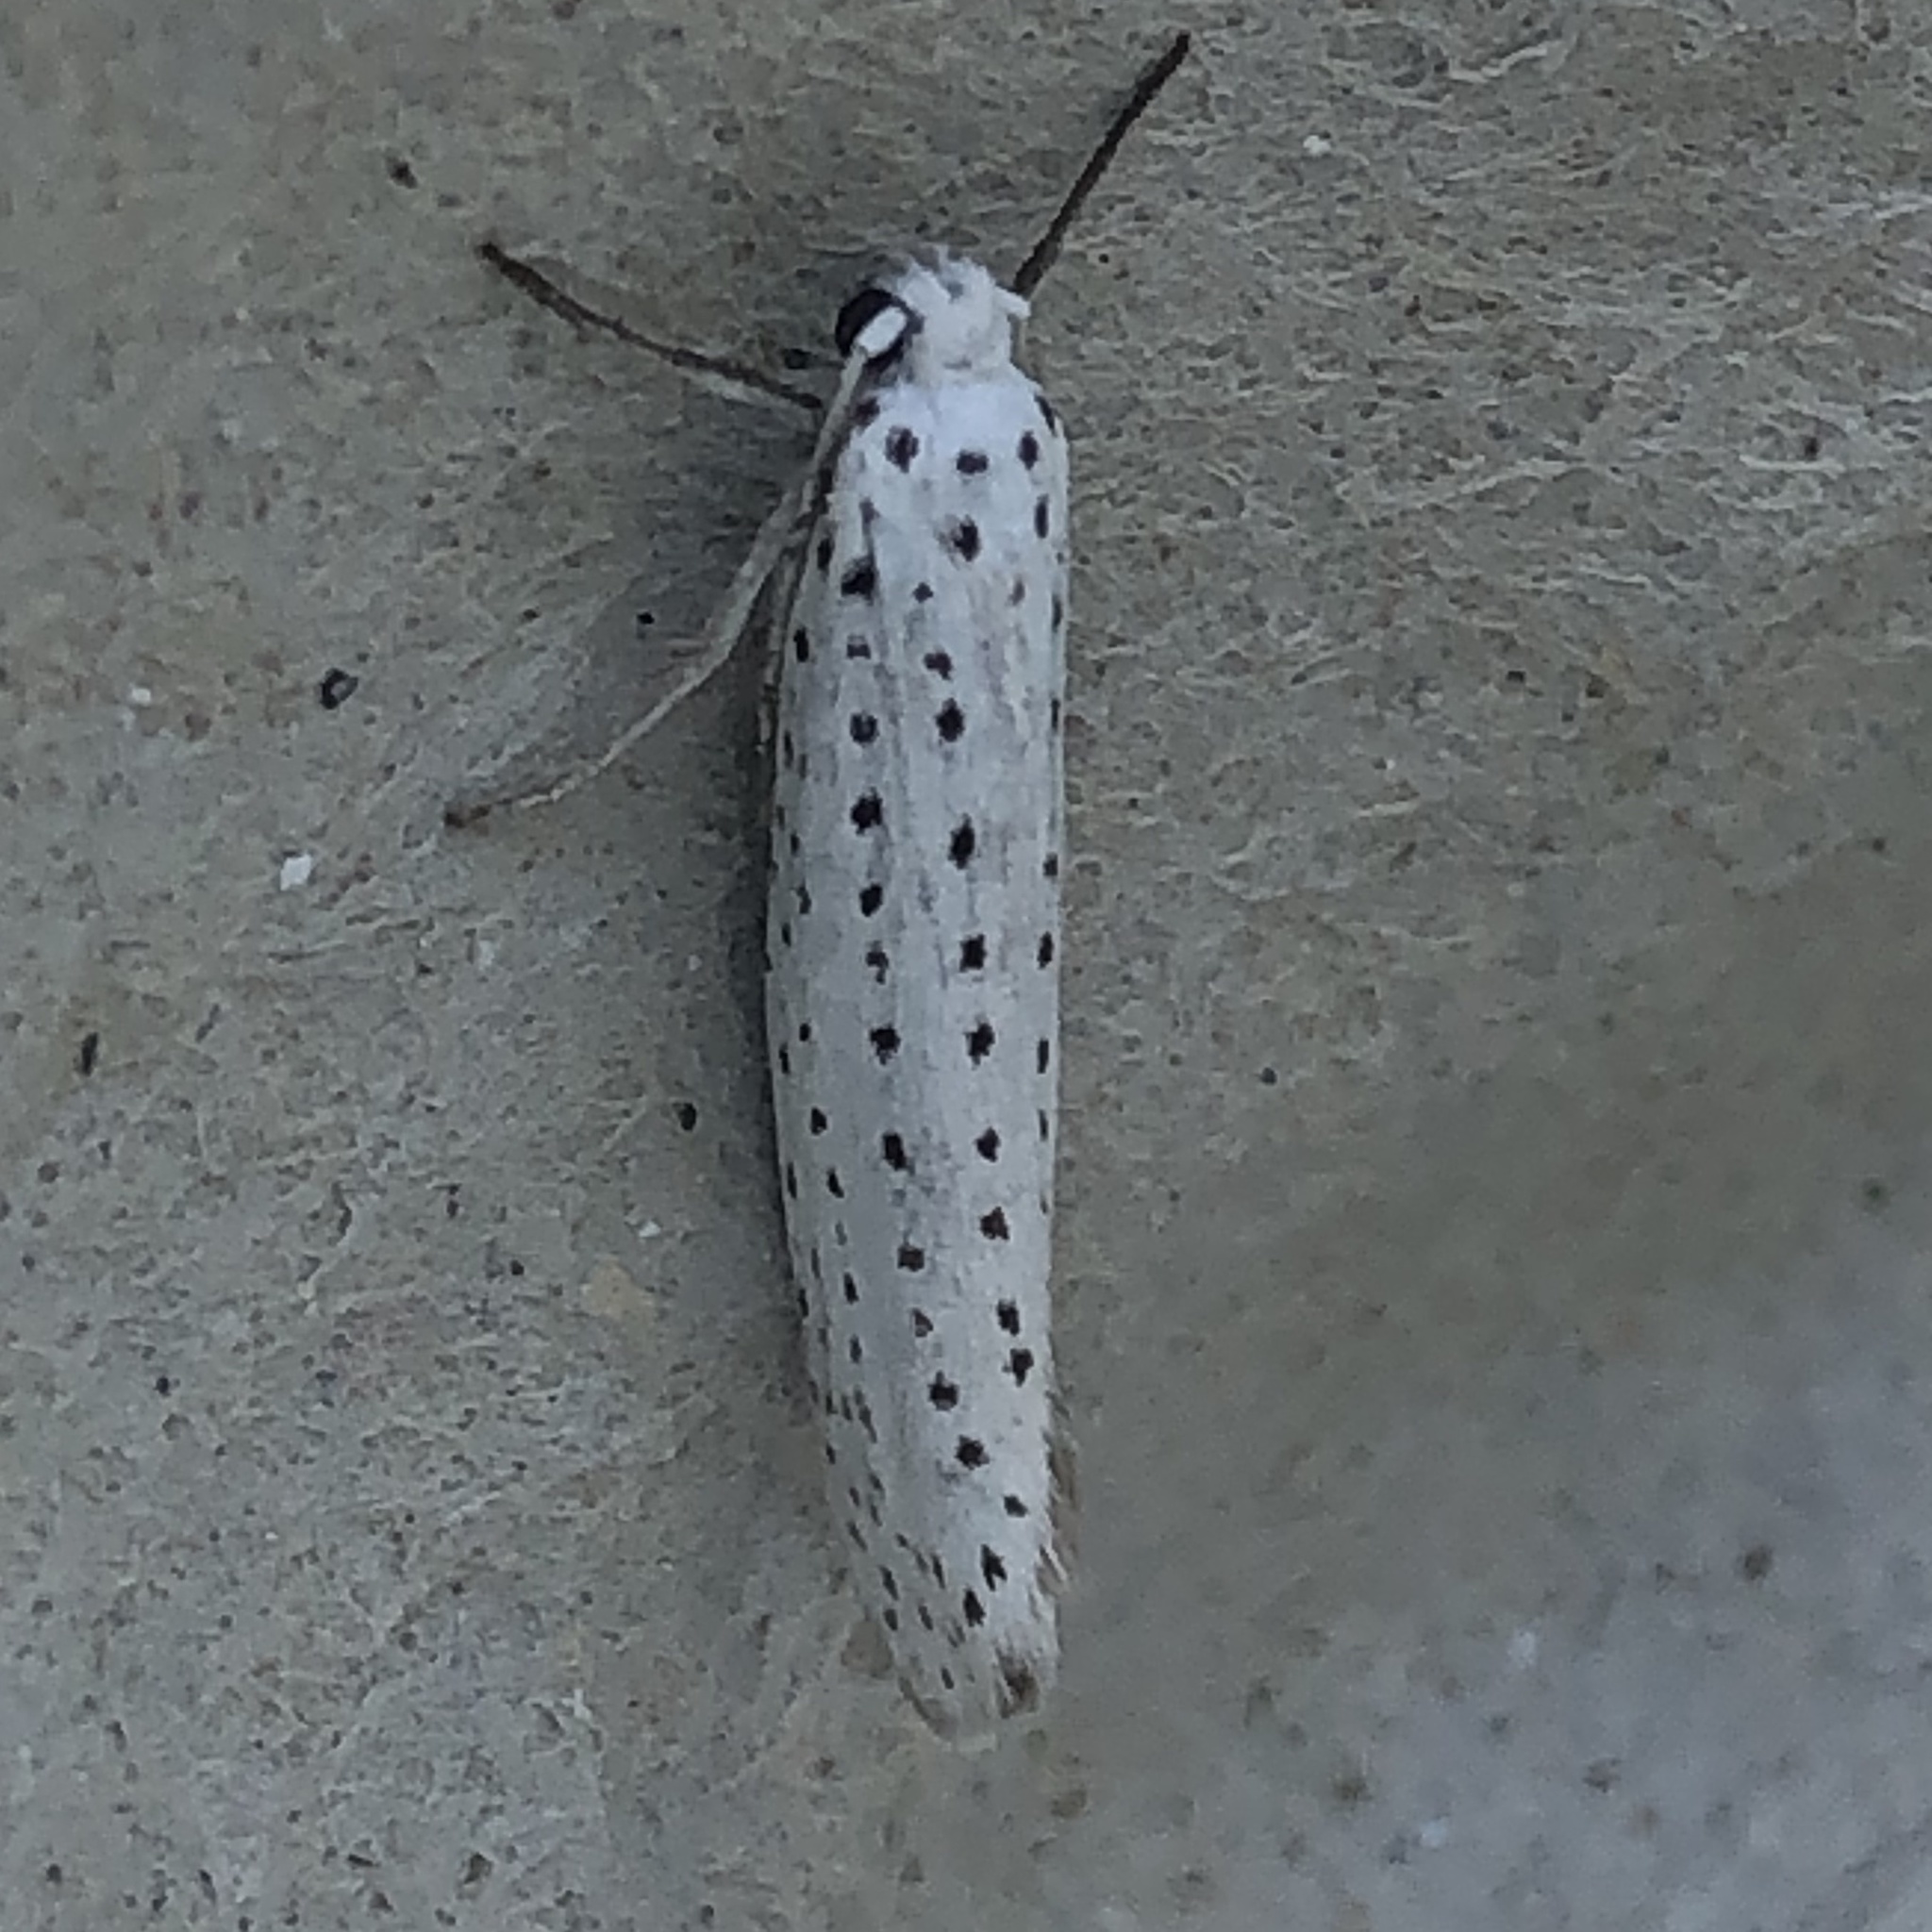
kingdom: Animalia
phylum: Arthropoda
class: Insecta
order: Lepidoptera
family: Yponomeutidae
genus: Yponomeuta
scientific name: Yponomeuta evonymella
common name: Bird-cherry ermine
